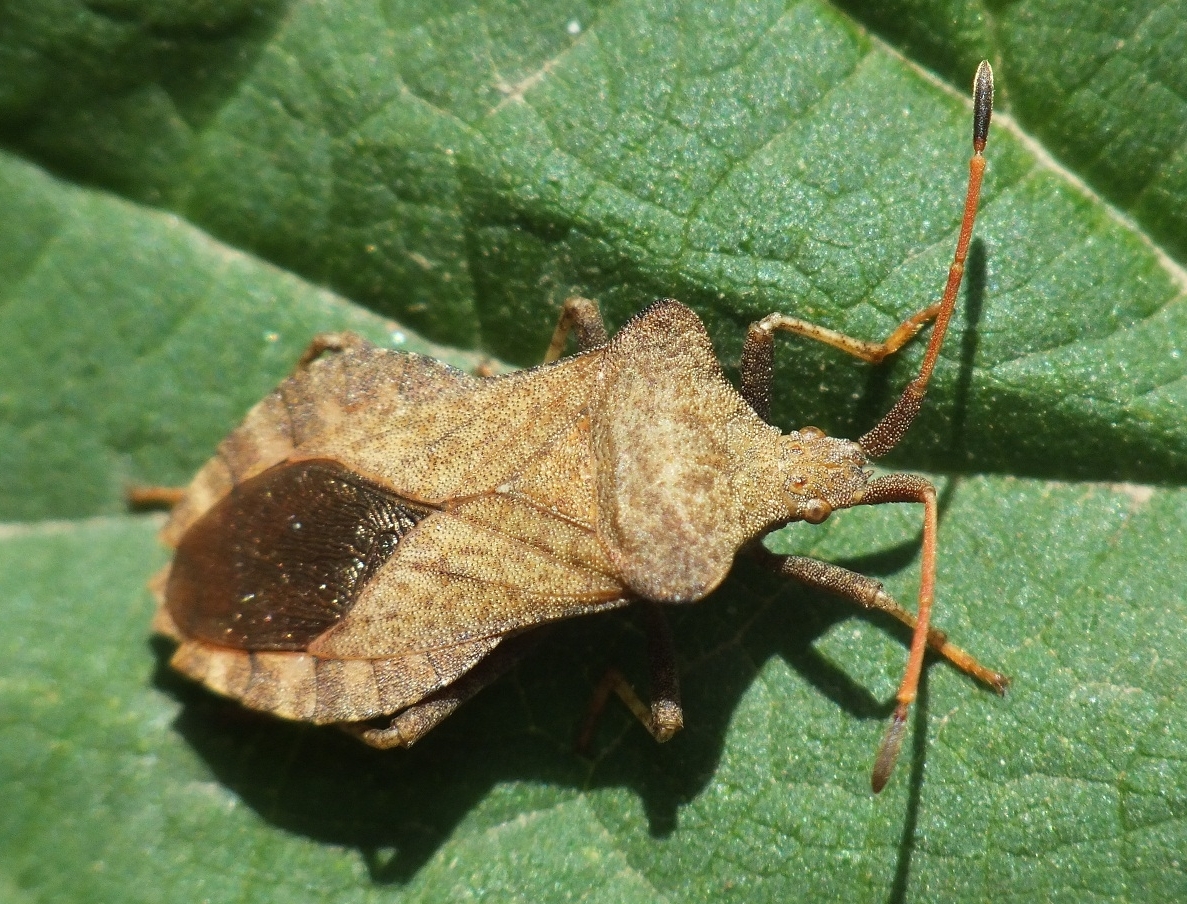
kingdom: Animalia
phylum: Arthropoda
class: Insecta
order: Hemiptera
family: Coreidae
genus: Coreus
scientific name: Coreus marginatus
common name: Dock bug
